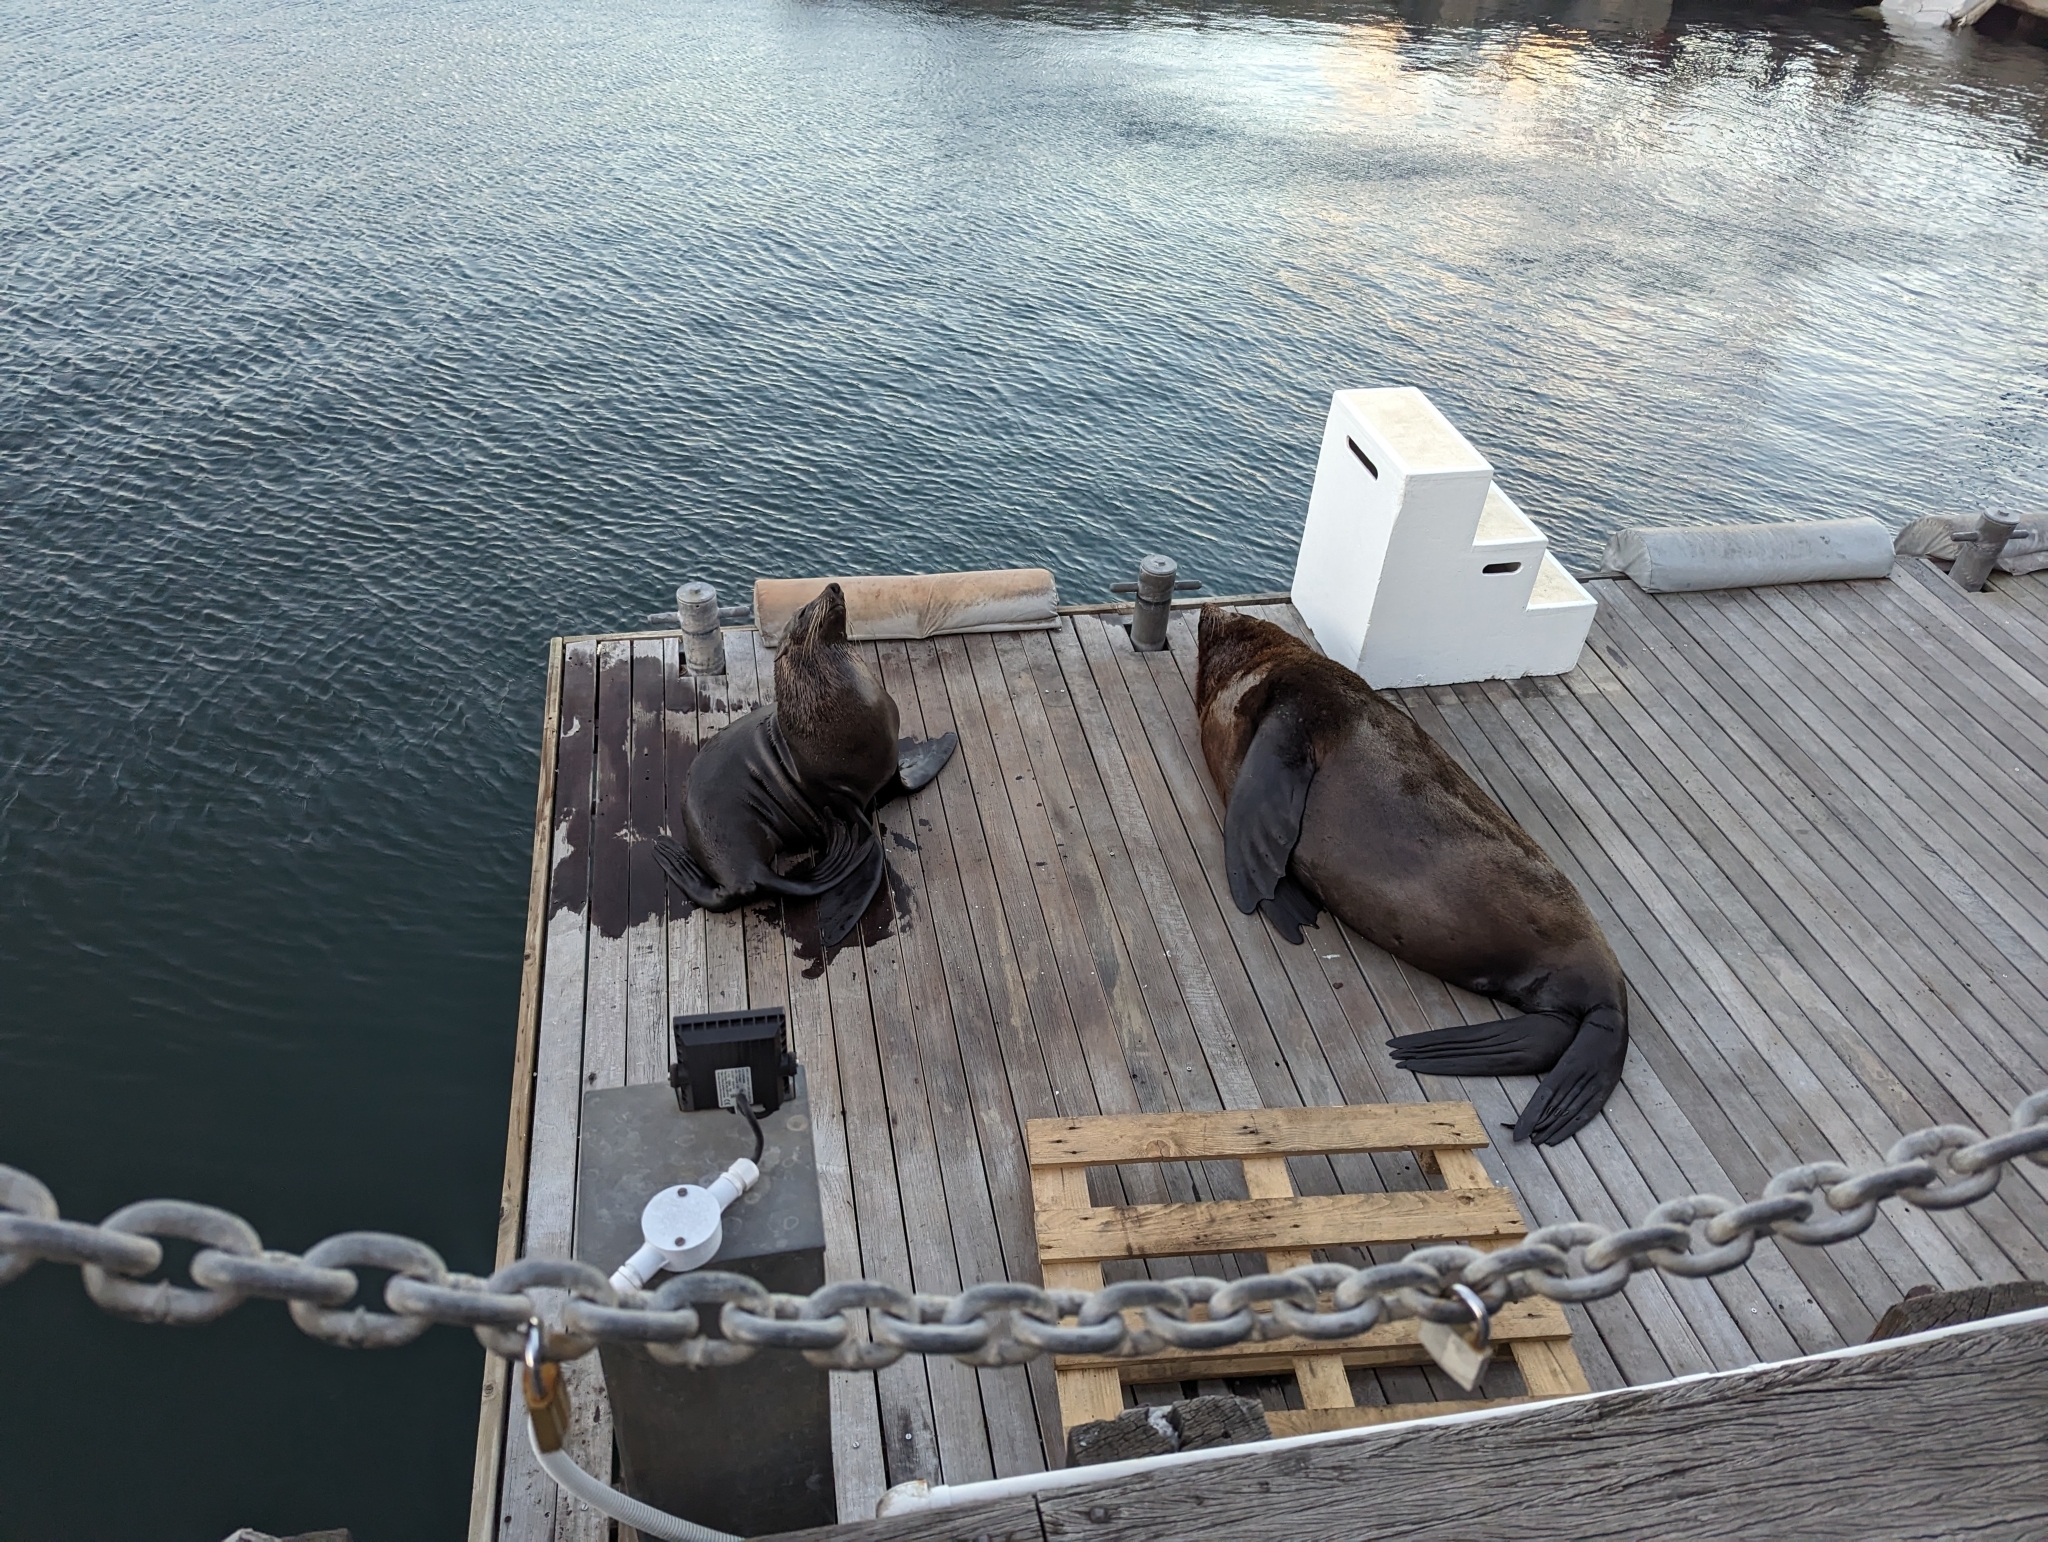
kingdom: Animalia
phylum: Chordata
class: Mammalia
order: Carnivora
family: Otariidae
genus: Arctocephalus
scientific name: Arctocephalus pusillus
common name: Brown fur seal
